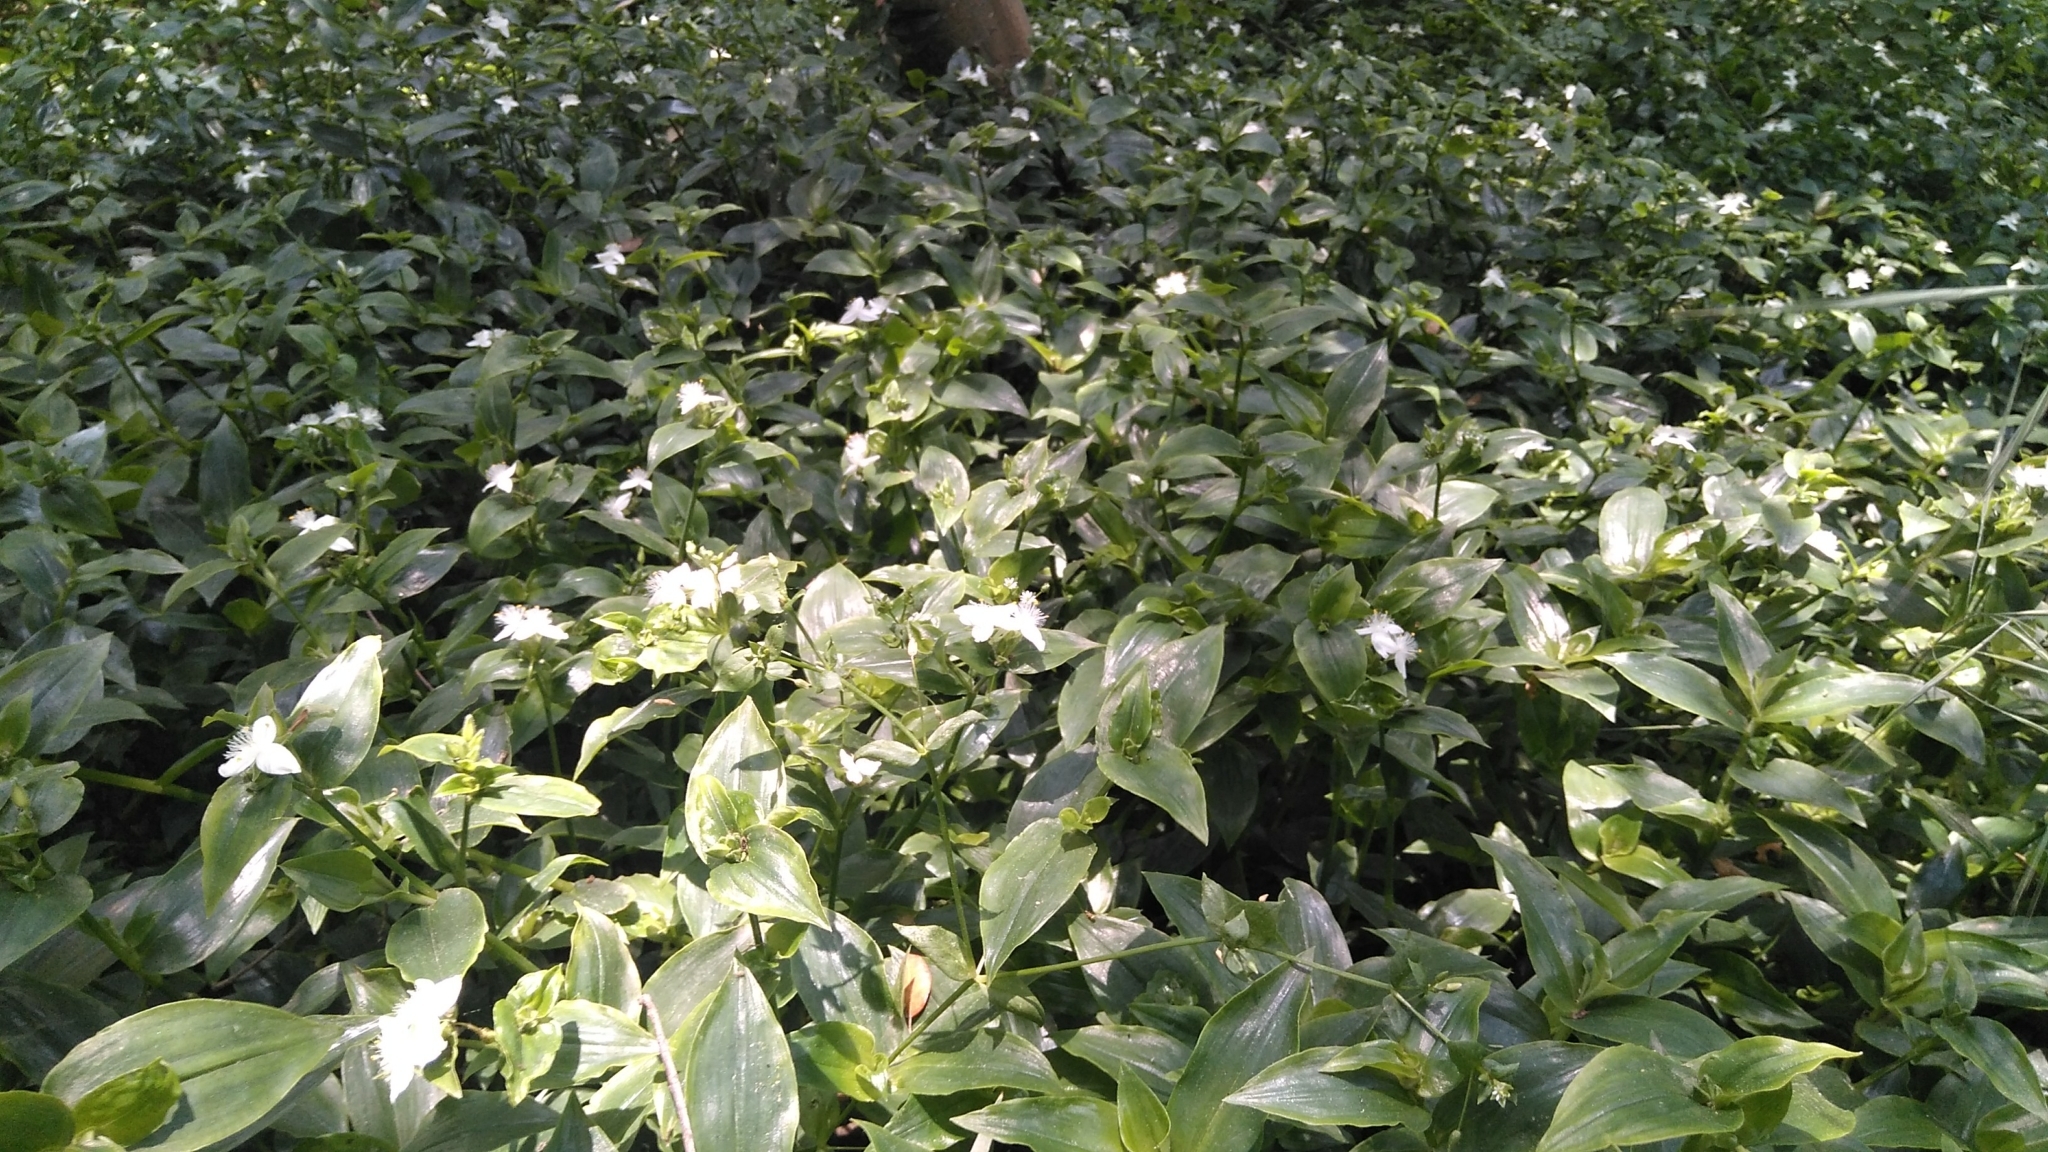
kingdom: Plantae
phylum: Tracheophyta
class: Liliopsida
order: Commelinales
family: Commelinaceae
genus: Tradescantia
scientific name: Tradescantia fluminensis
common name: Wandering-jew
